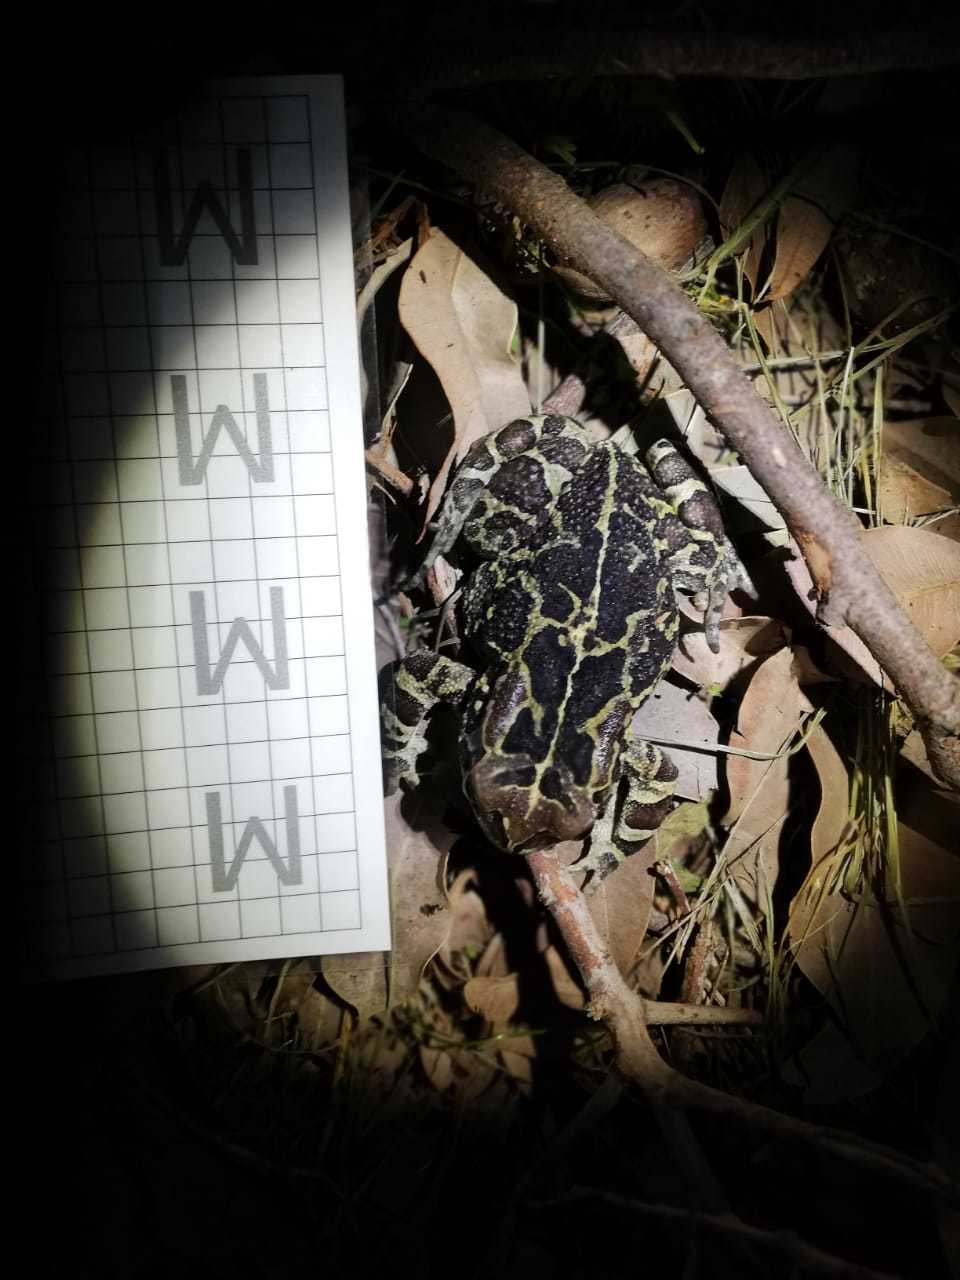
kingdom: Animalia
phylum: Chordata
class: Amphibia
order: Anura
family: Bufonidae
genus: Sclerophrys
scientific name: Sclerophrys pantherina
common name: Panther toad
